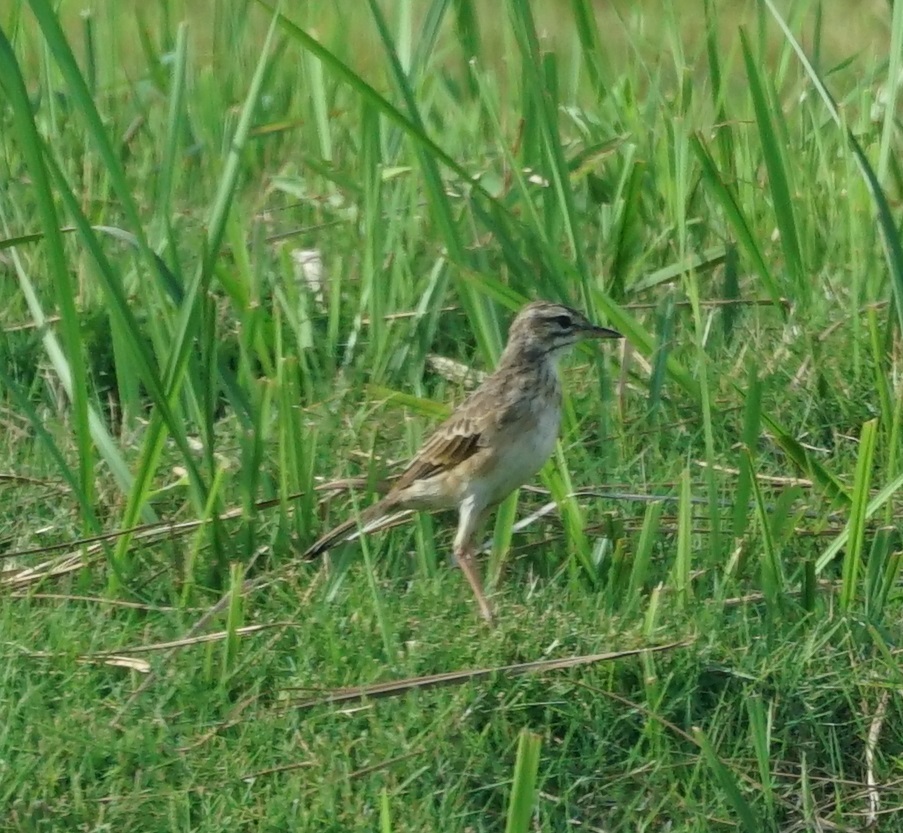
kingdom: Animalia
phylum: Chordata
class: Aves
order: Passeriformes
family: Motacillidae
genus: Anthus
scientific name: Anthus rufulus
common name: Paddyfield pipit
